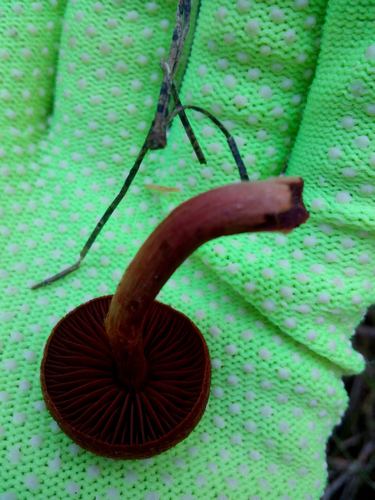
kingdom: Fungi
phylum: Basidiomycota
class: Agaricomycetes
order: Agaricales
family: Cortinariaceae
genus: Cortinarius
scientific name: Cortinarius
